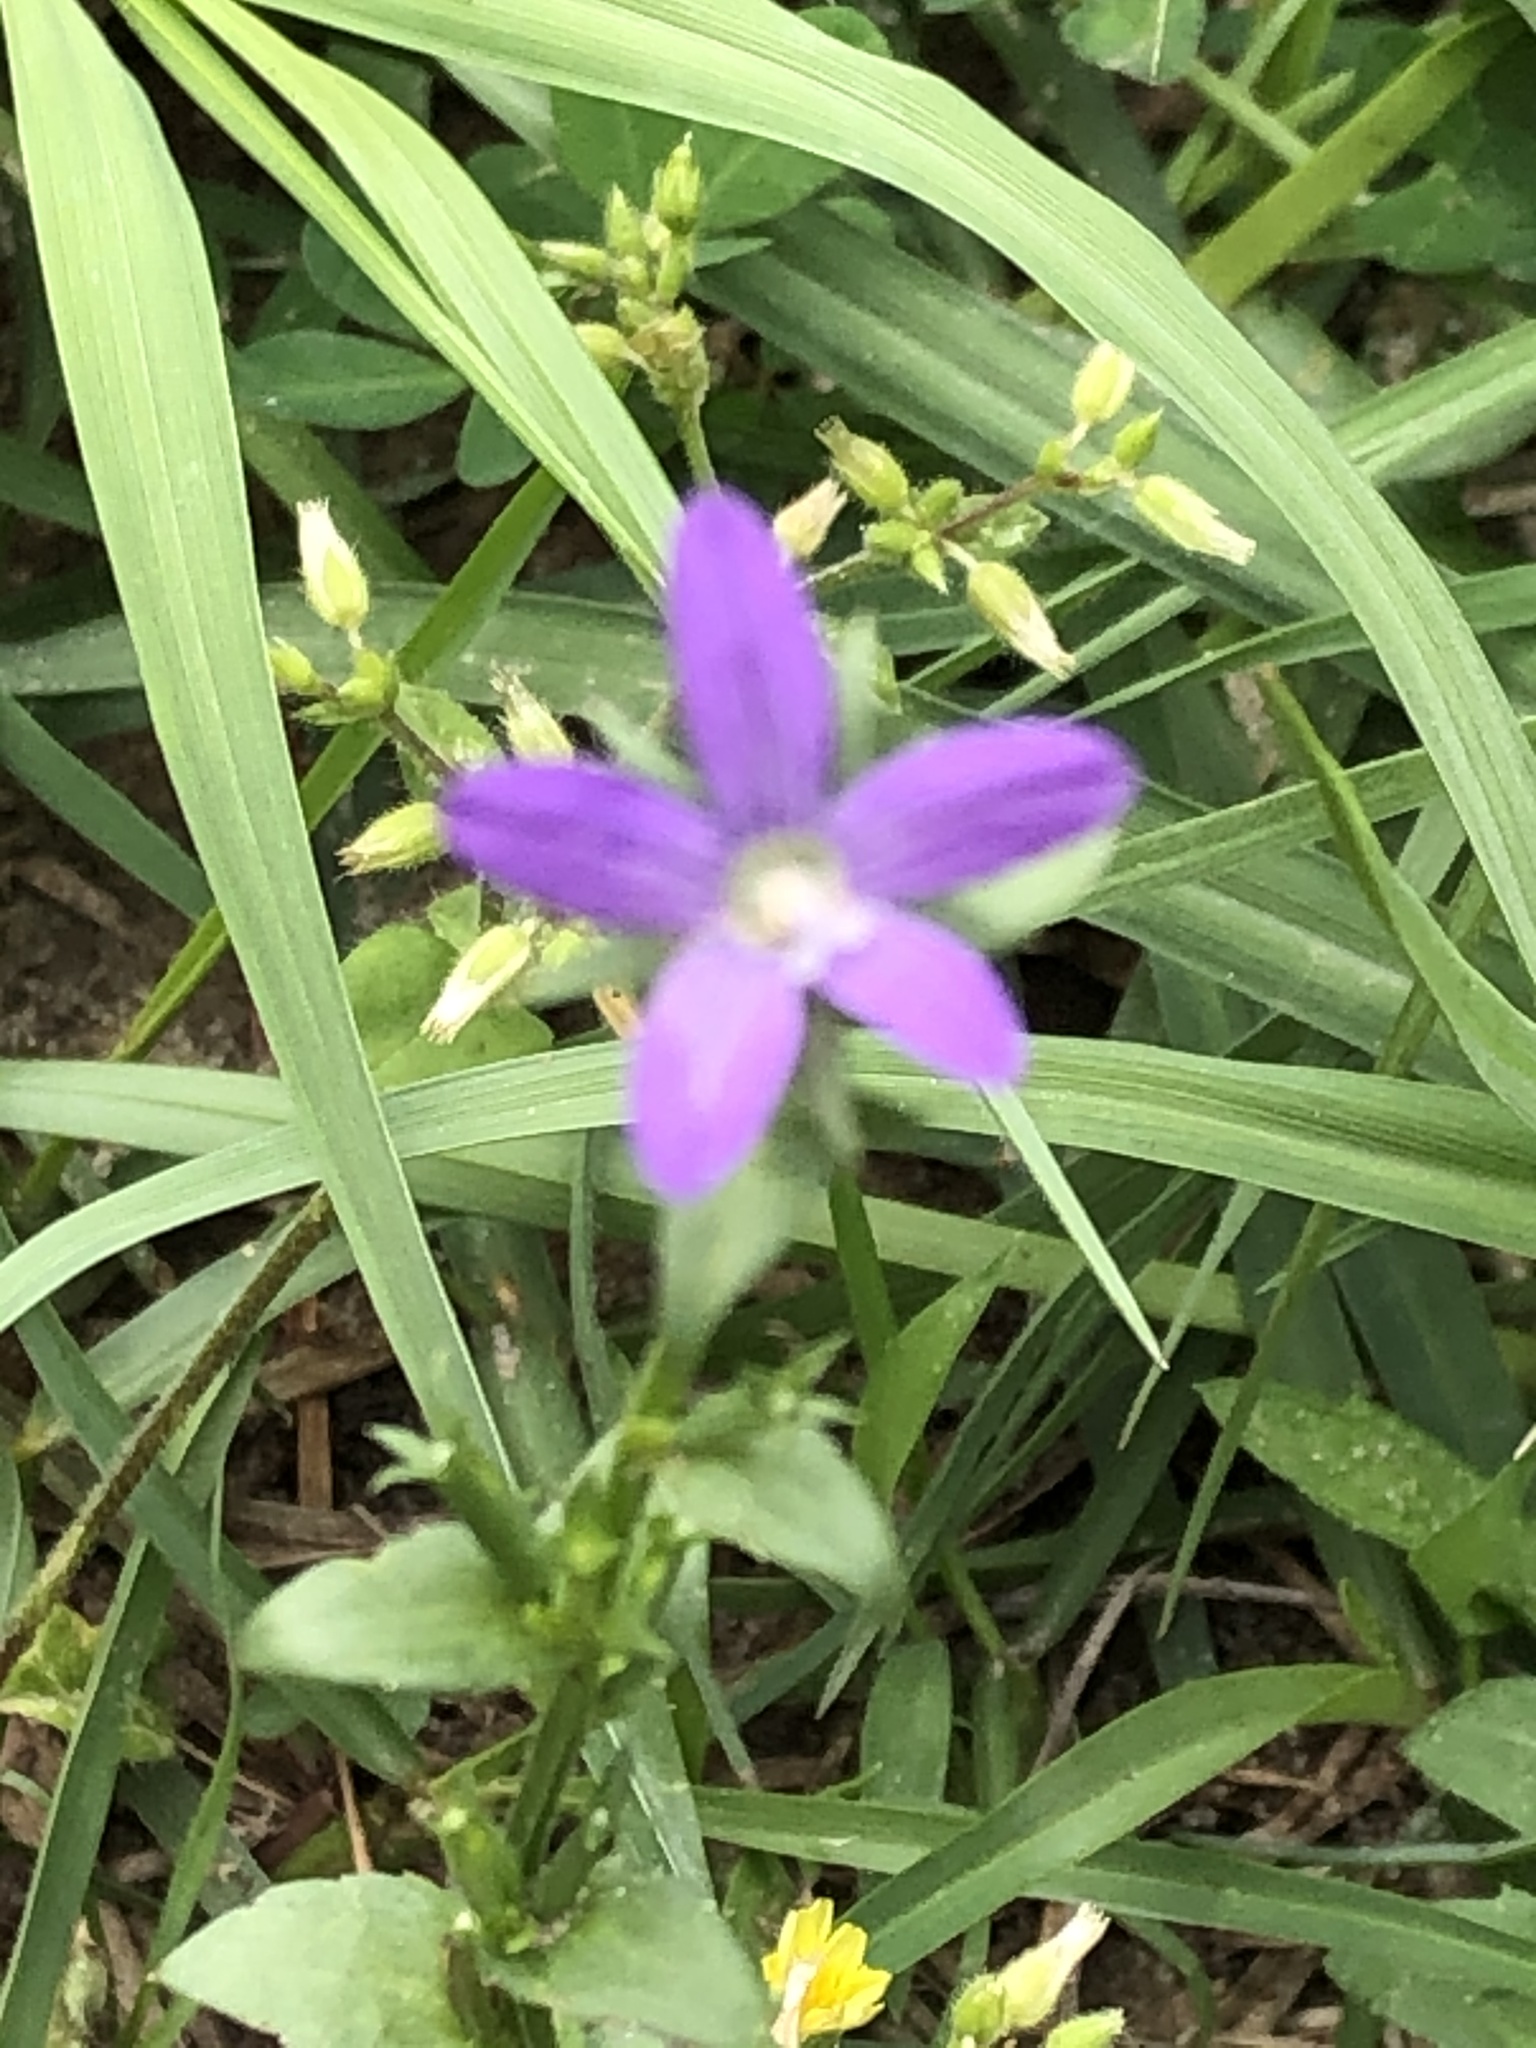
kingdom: Plantae
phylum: Tracheophyta
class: Magnoliopsida
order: Asterales
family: Campanulaceae
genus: Triodanis
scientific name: Triodanis biflora
